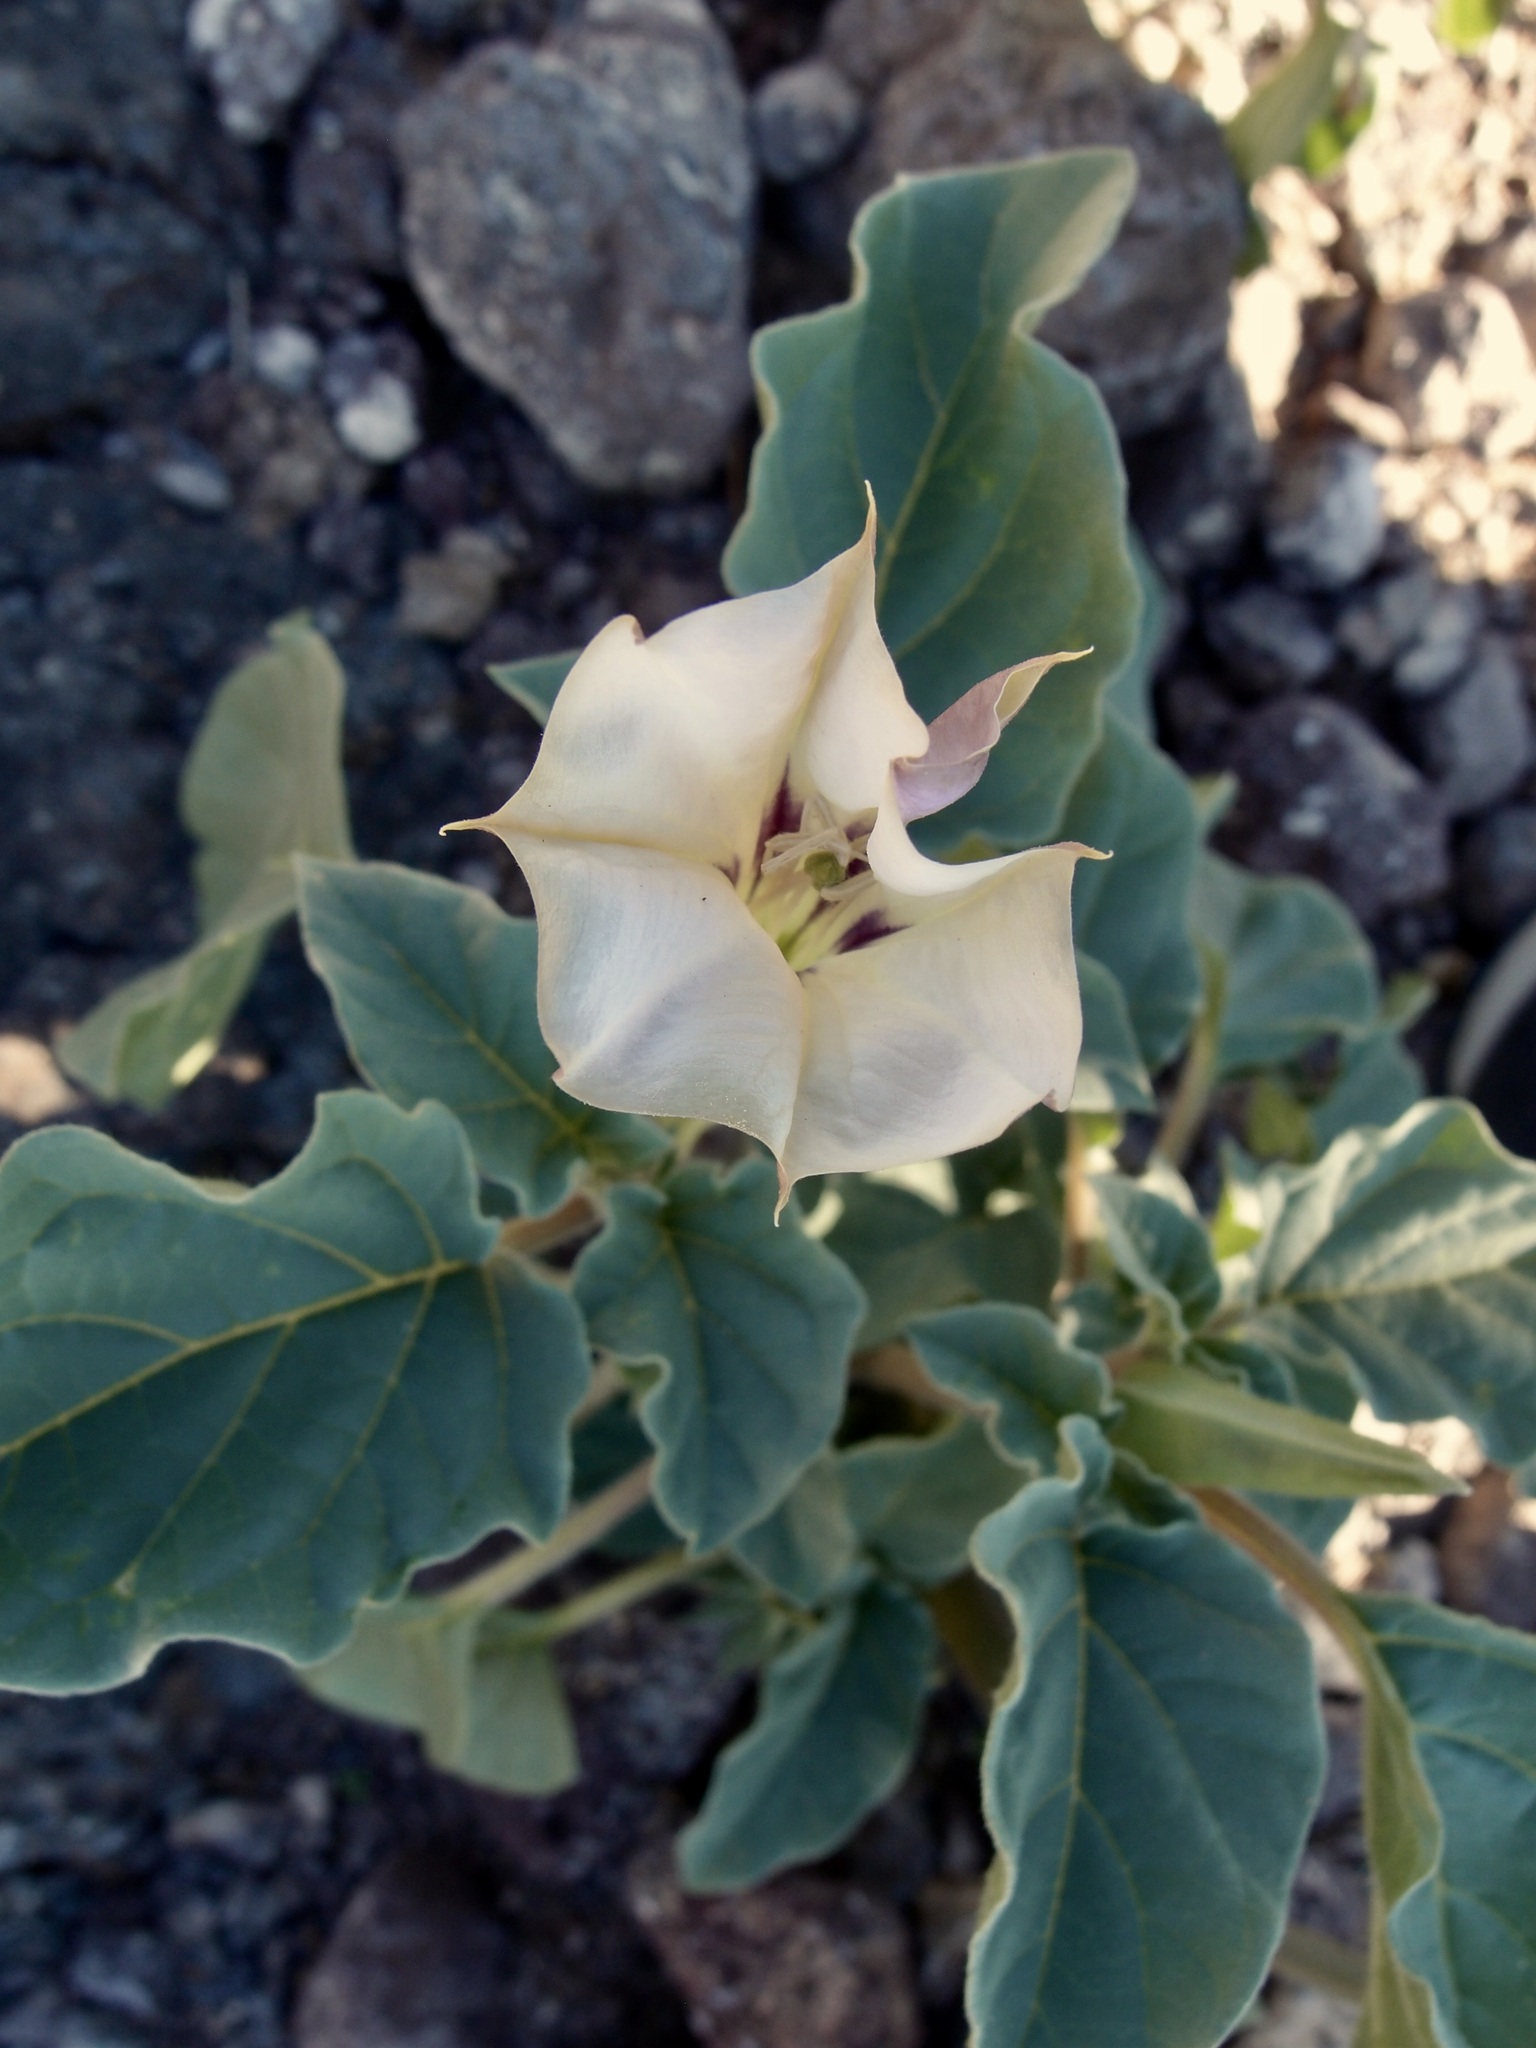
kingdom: Plantae
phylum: Tracheophyta
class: Magnoliopsida
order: Solanales
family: Solanaceae
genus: Datura
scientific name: Datura discolor
